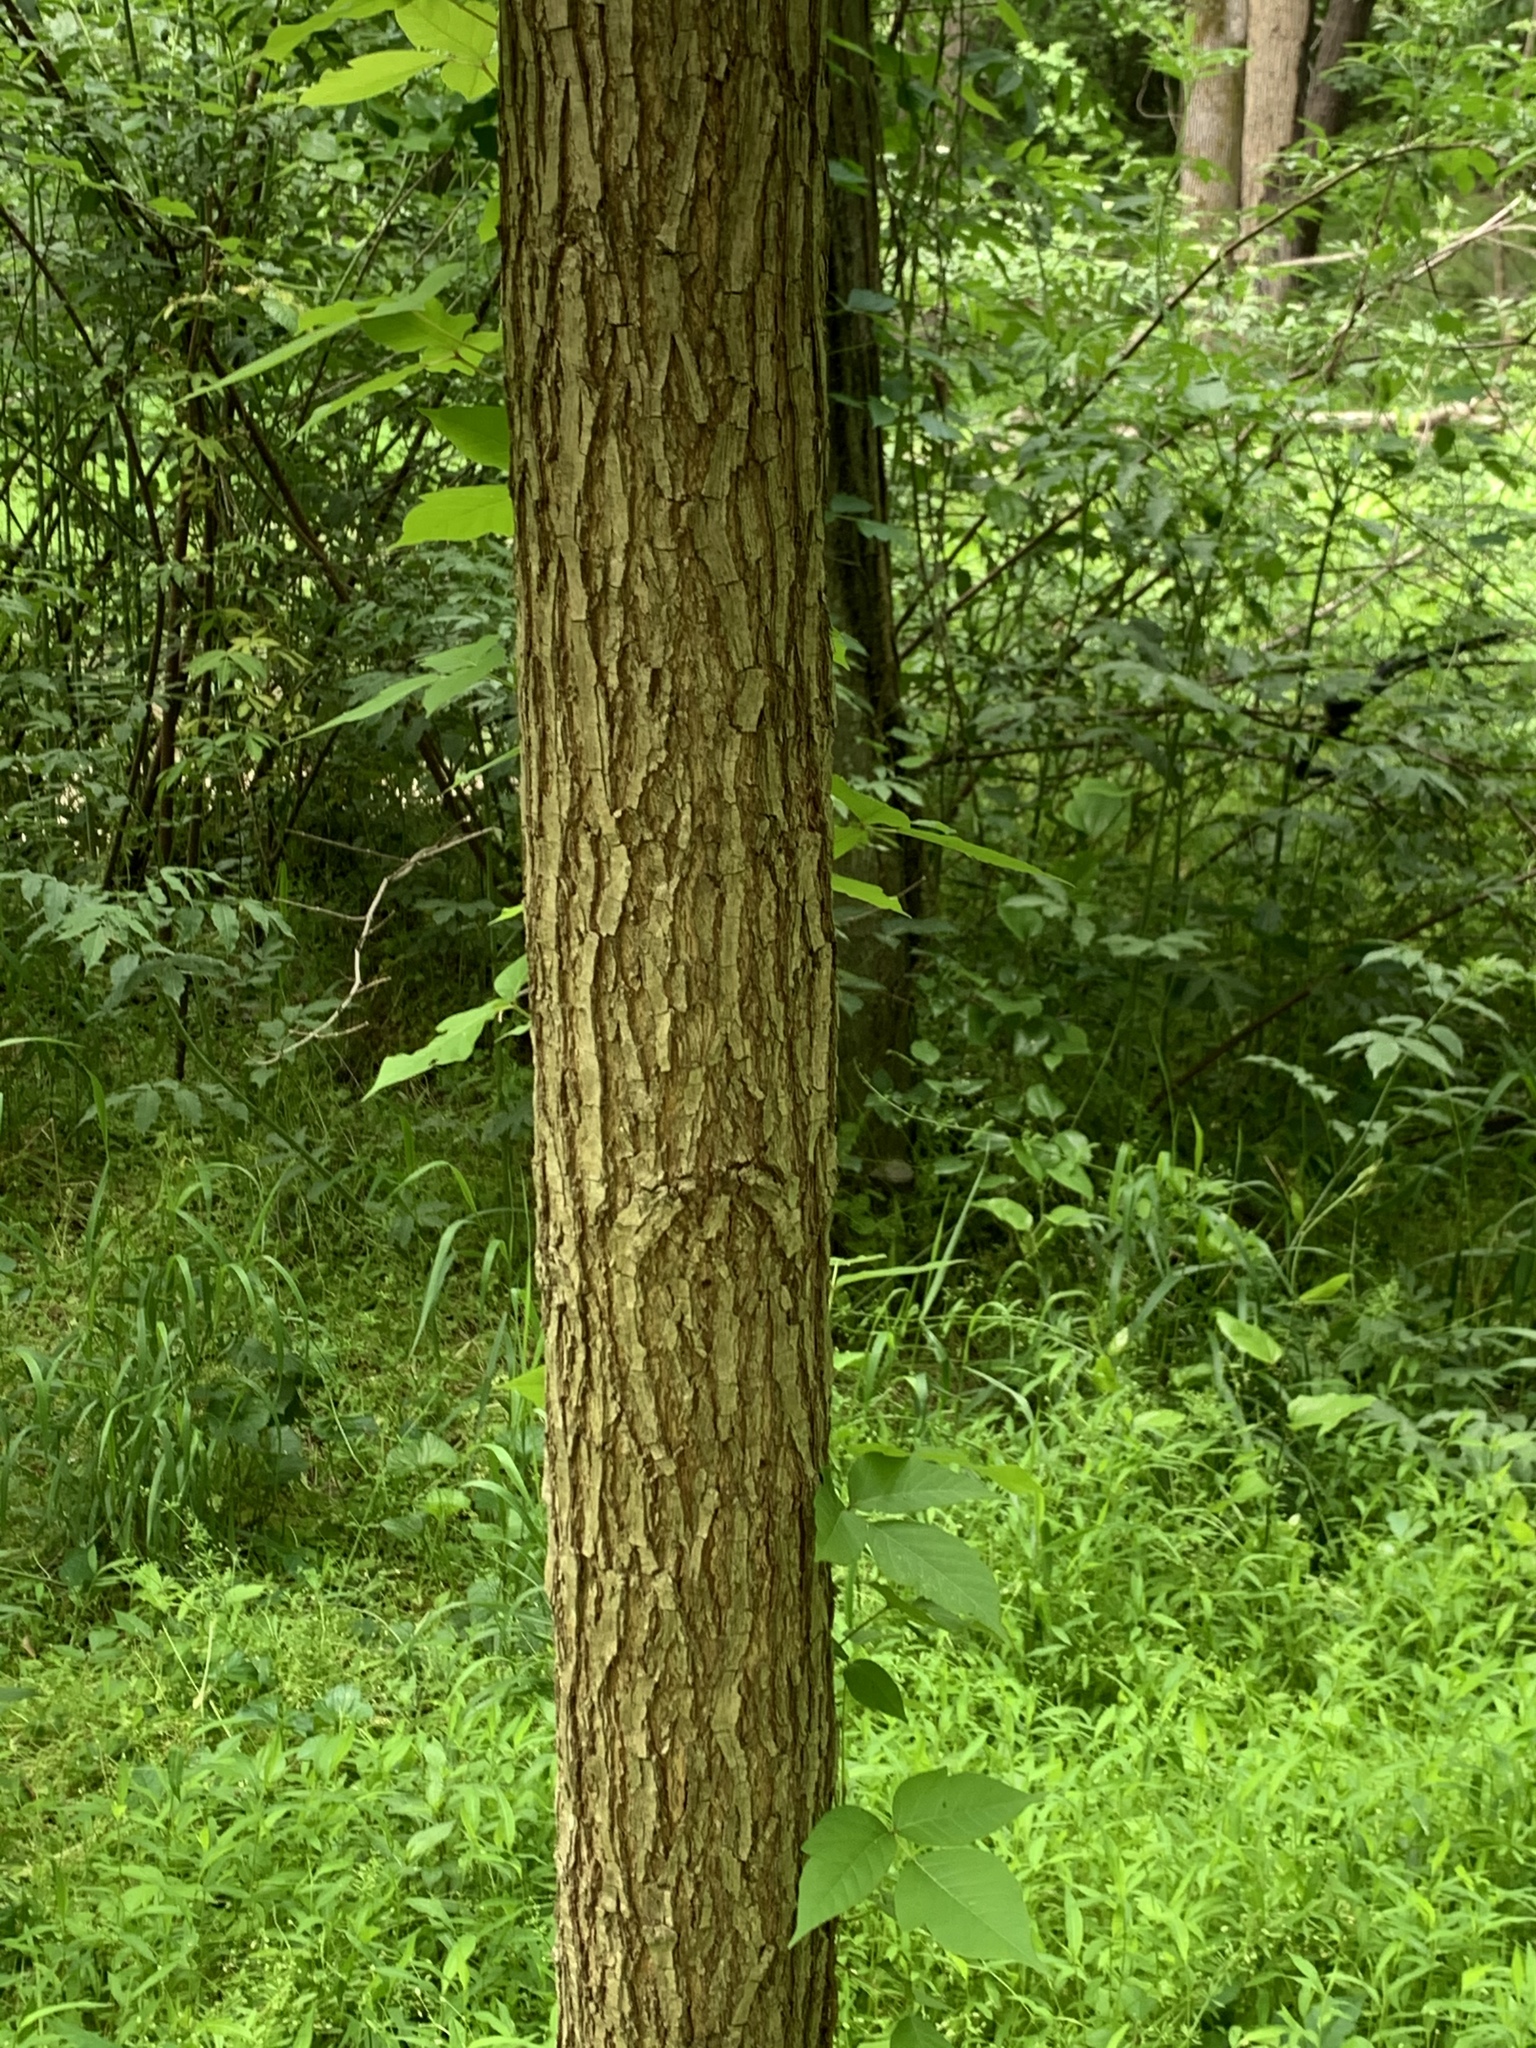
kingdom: Plantae
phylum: Tracheophyta
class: Magnoliopsida
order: Fagales
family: Juglandaceae
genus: Juglans
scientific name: Juglans nigra
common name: Black walnut
